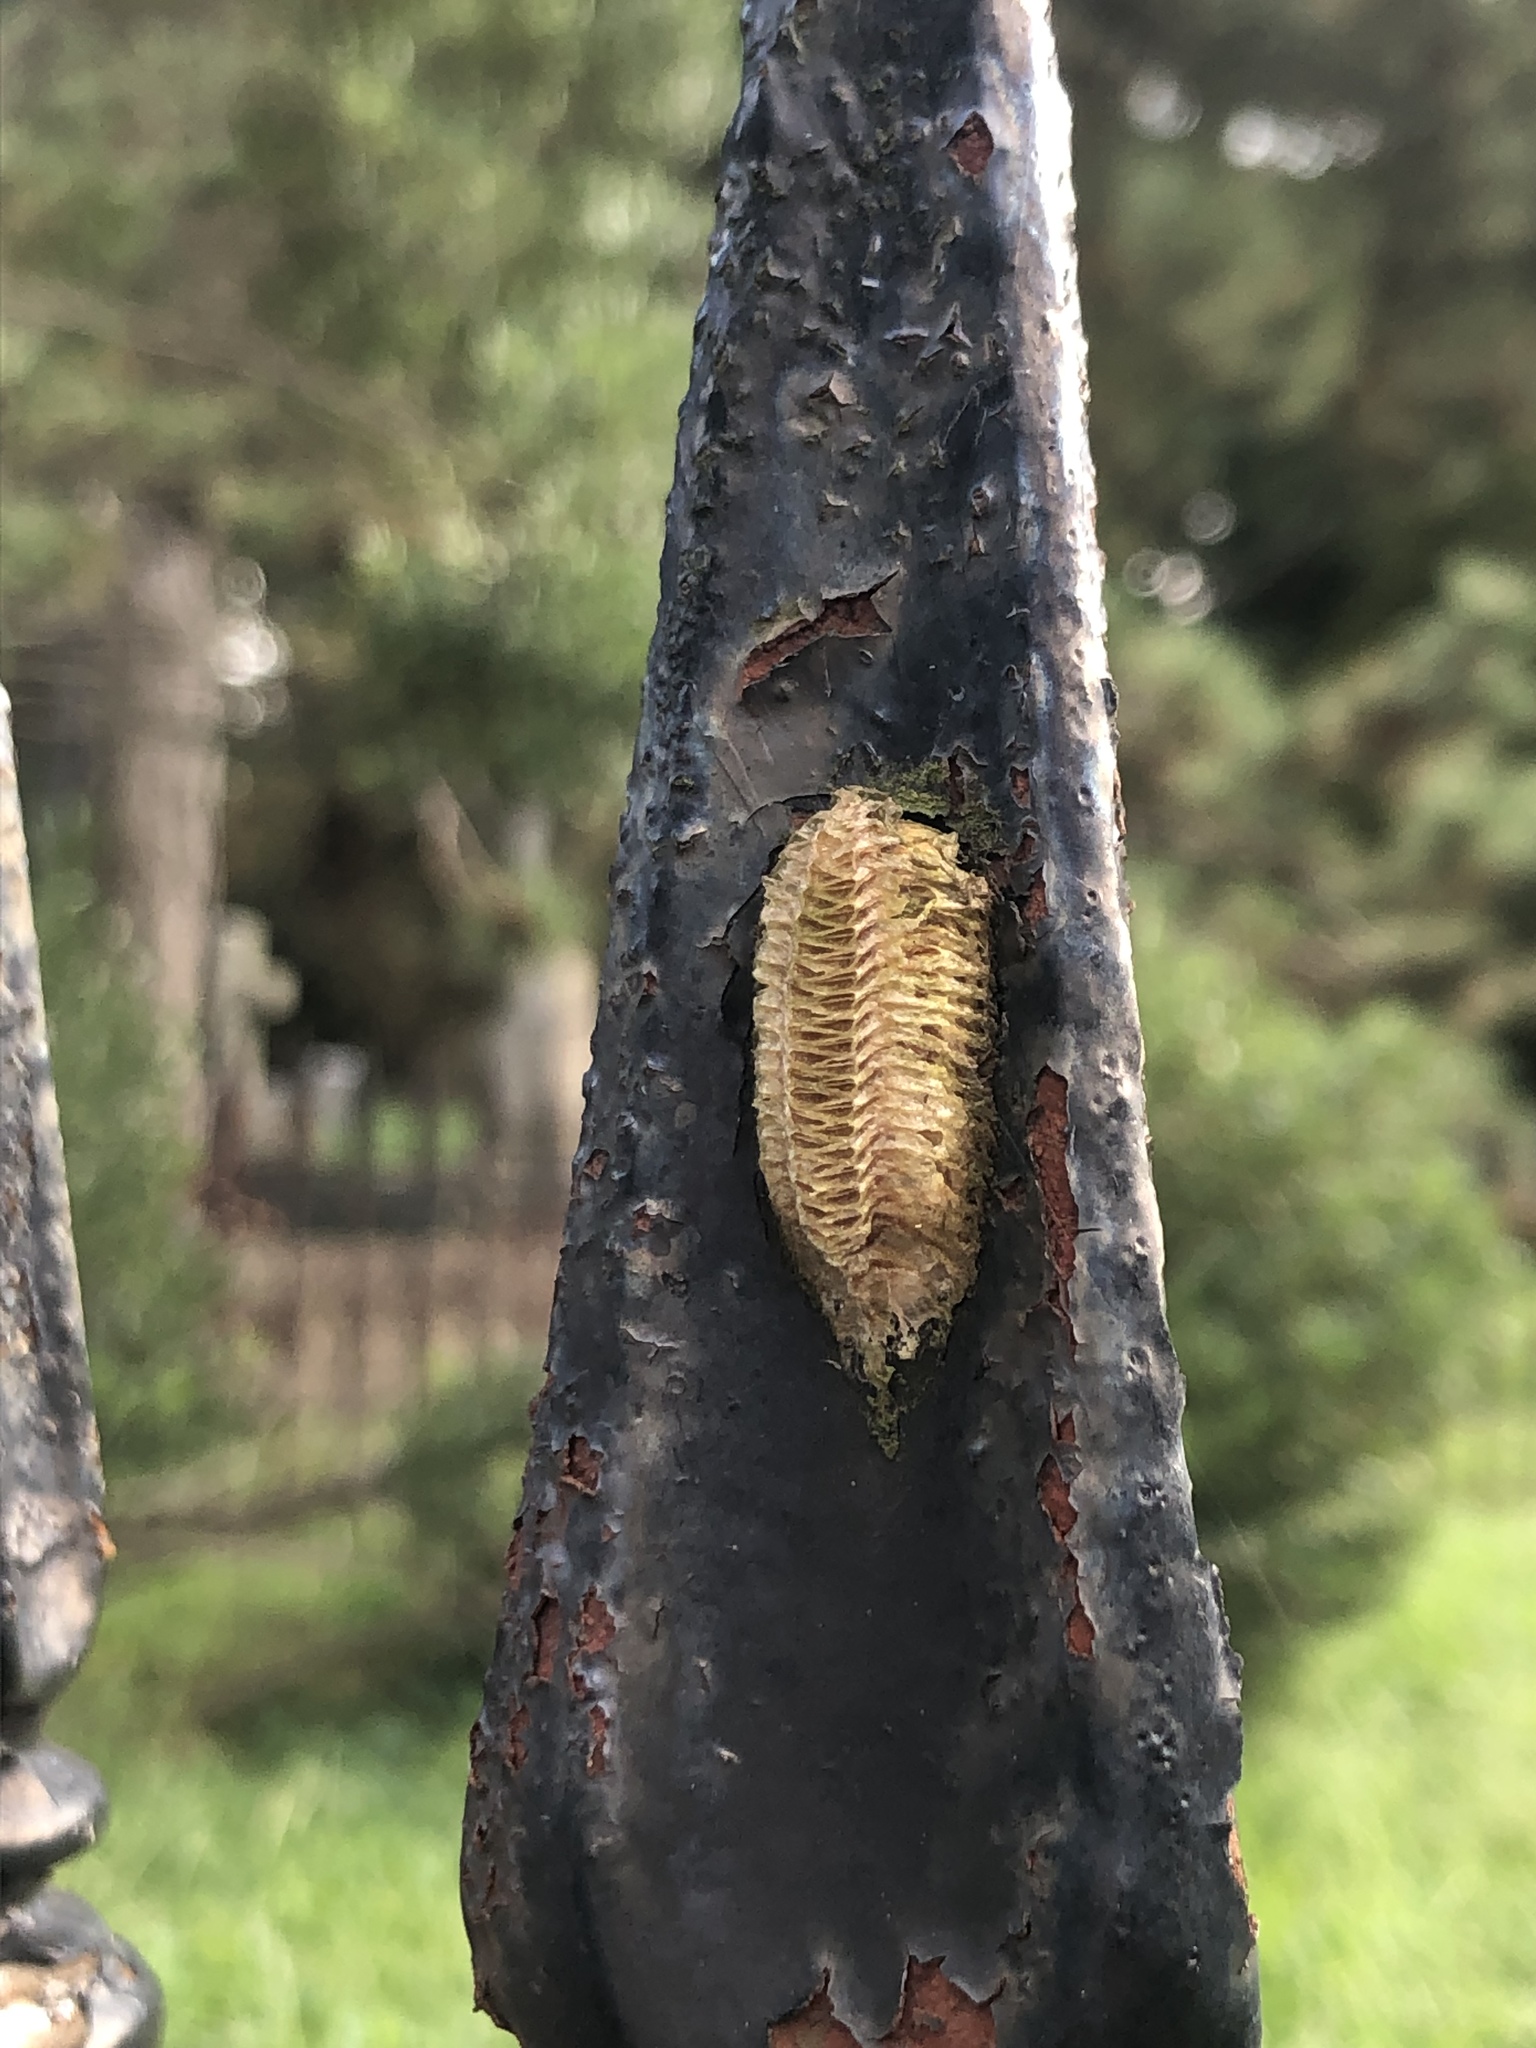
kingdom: Animalia
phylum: Arthropoda
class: Insecta
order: Mantodea
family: Mantidae
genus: Stagmomantis
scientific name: Stagmomantis carolina
